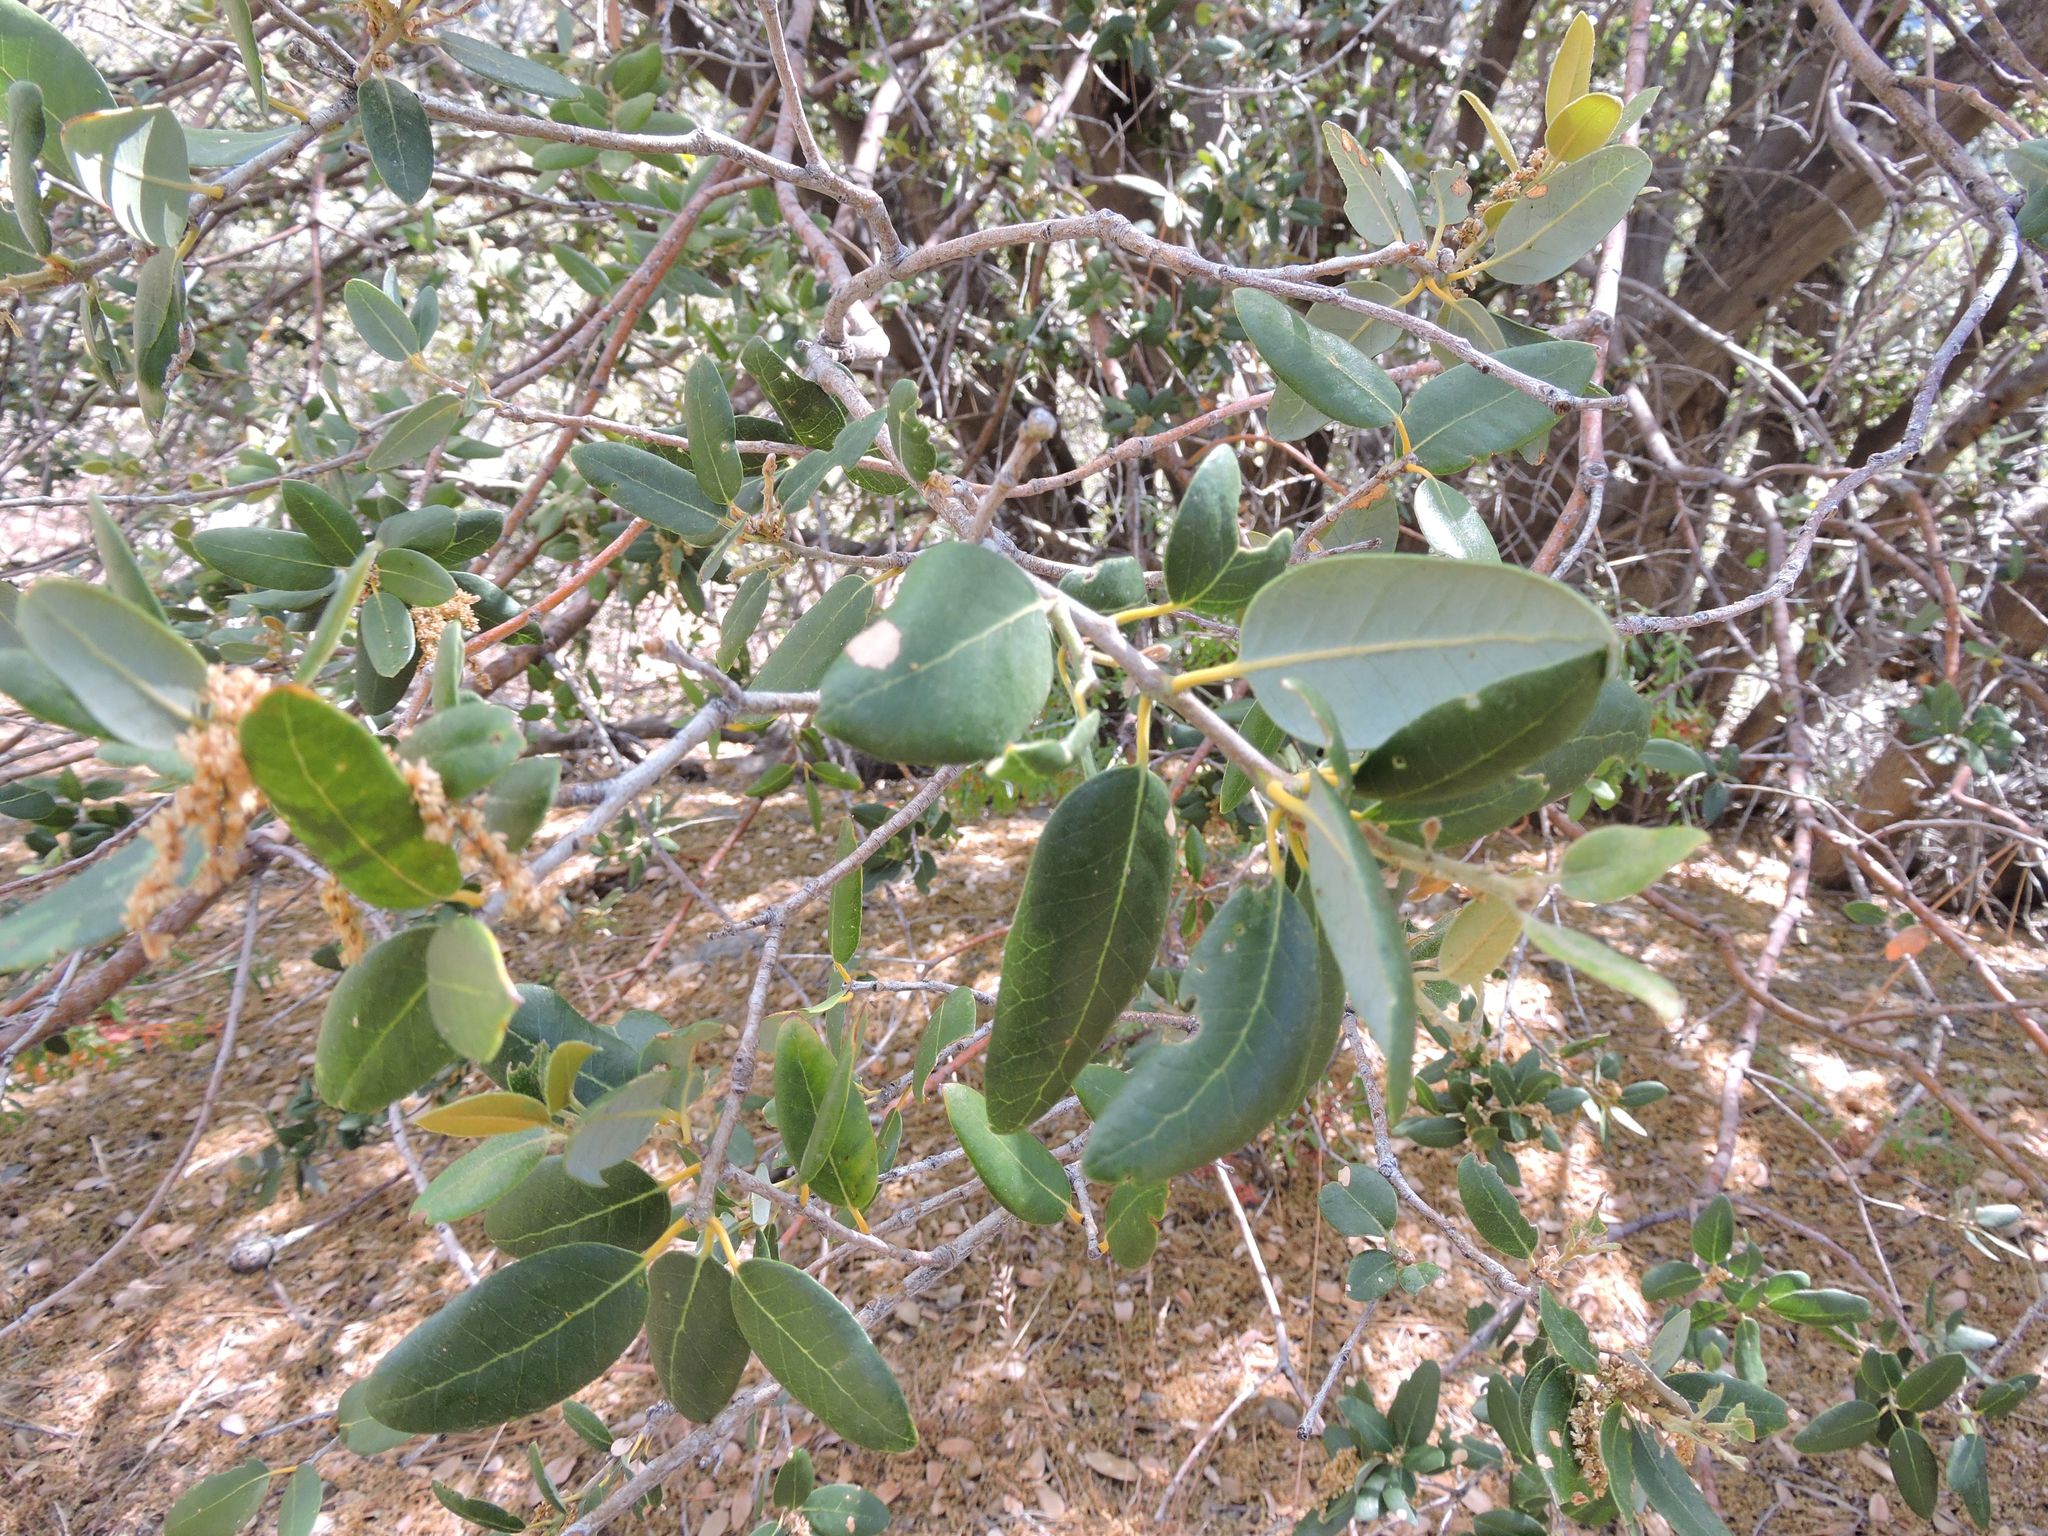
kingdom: Plantae
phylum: Tracheophyta
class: Magnoliopsida
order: Fagales
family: Fagaceae
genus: Quercus
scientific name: Quercus chrysolepis
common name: Canyon live oak
